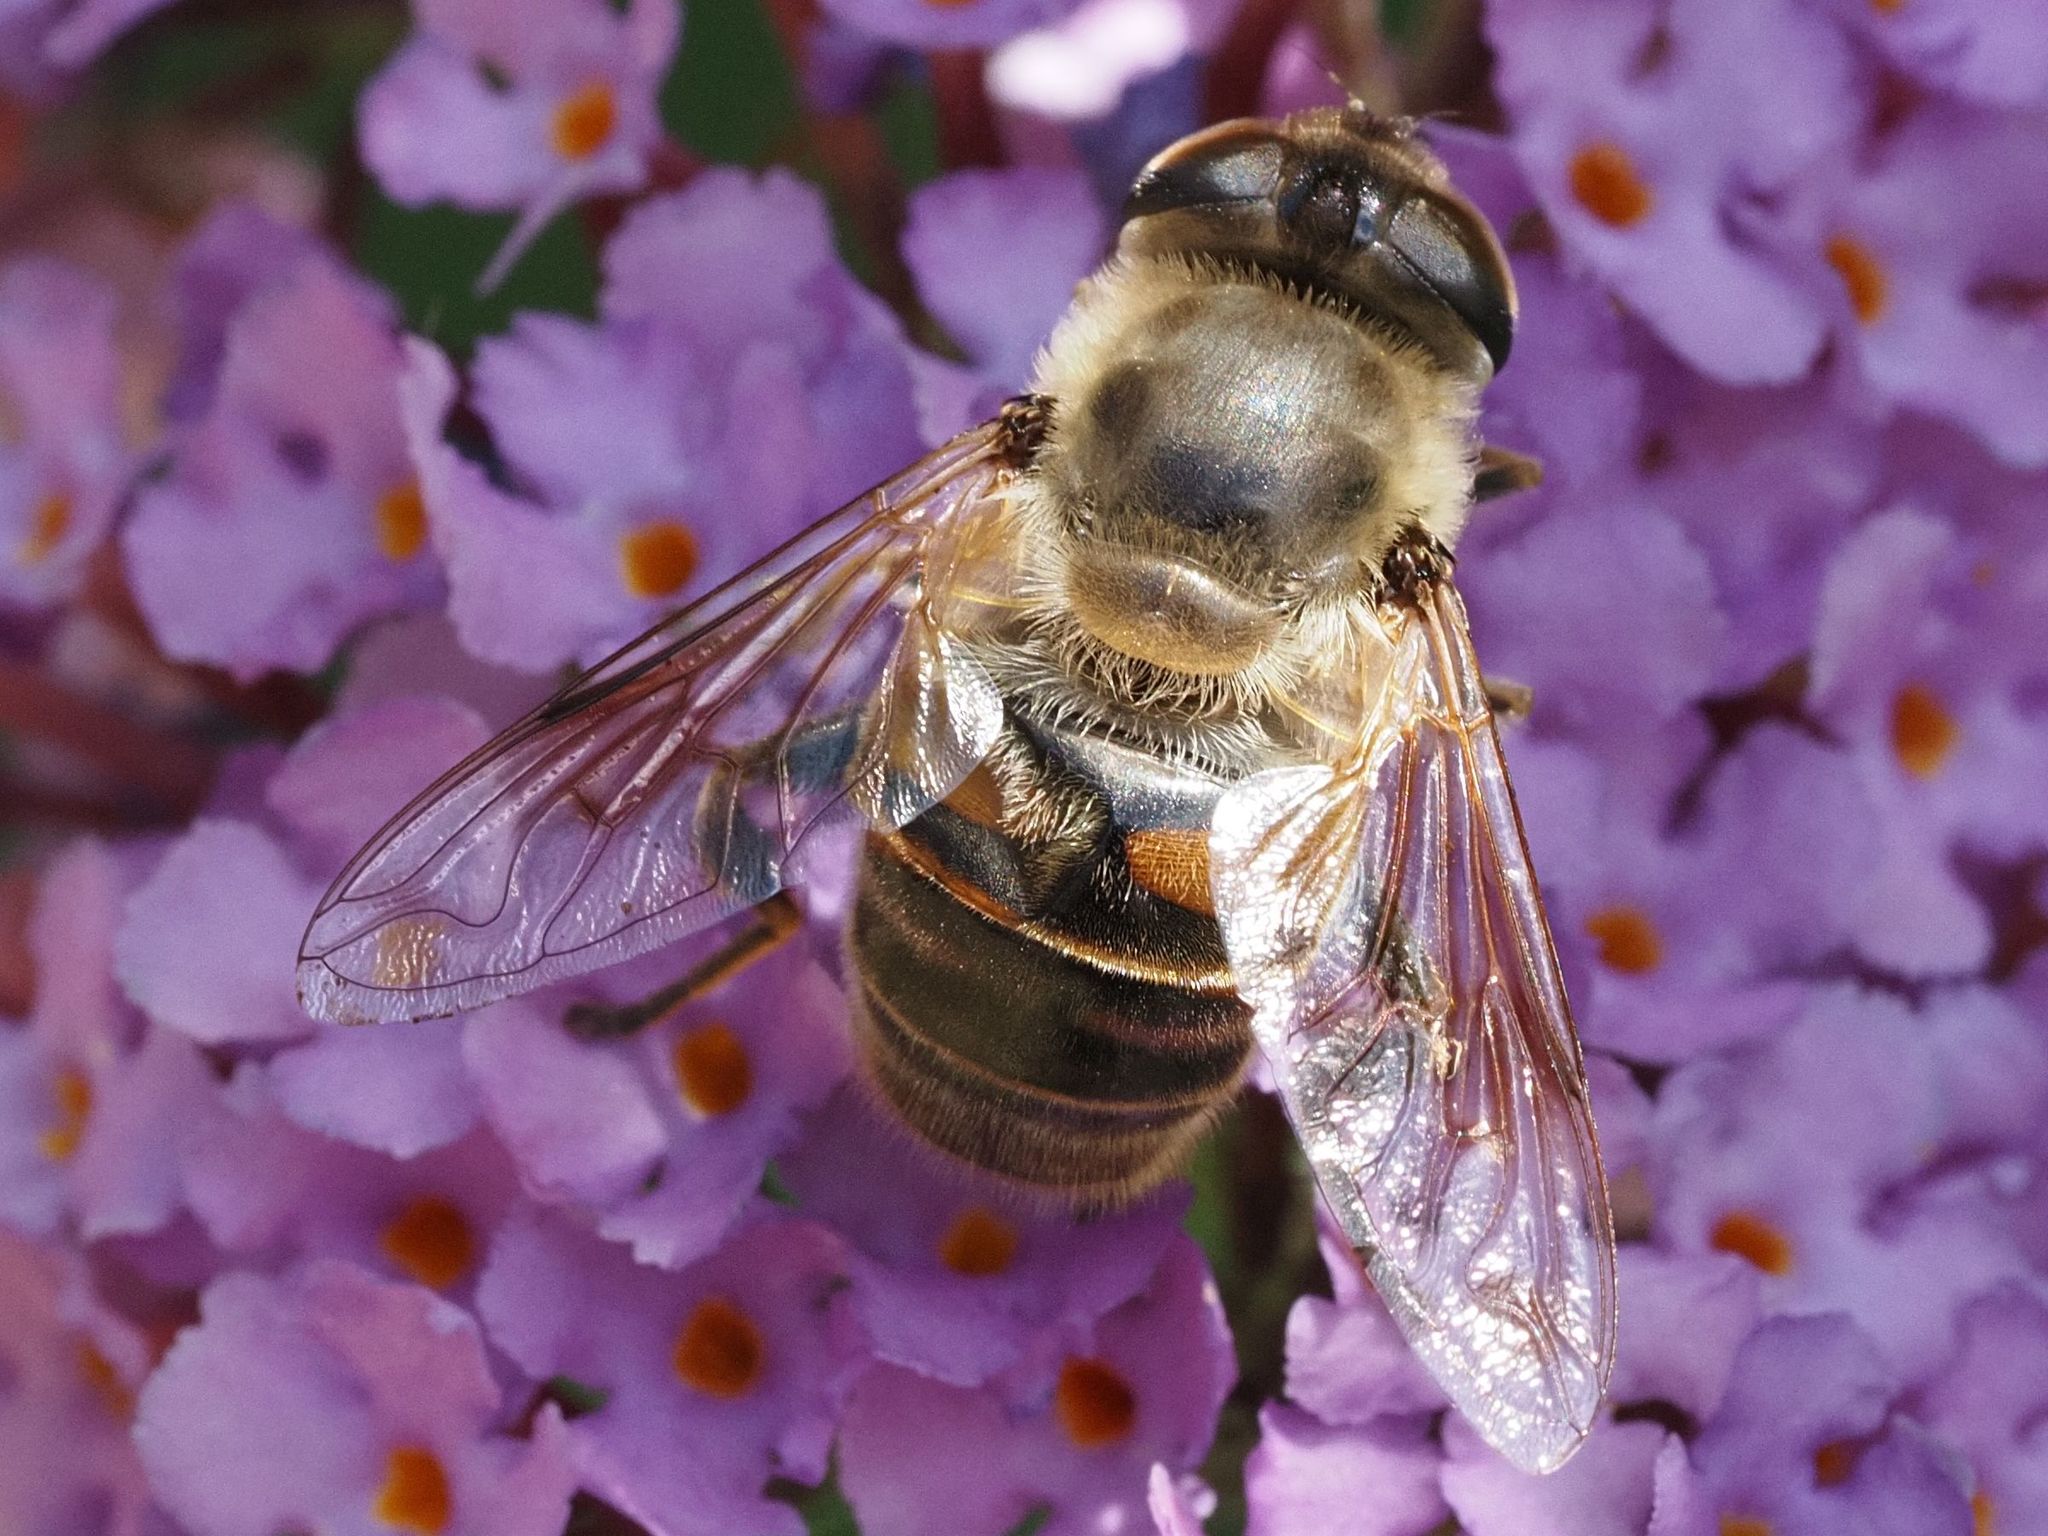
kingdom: Animalia
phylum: Arthropoda
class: Insecta
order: Diptera
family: Syrphidae
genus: Eristalis
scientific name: Eristalis tenax
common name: Drone fly
